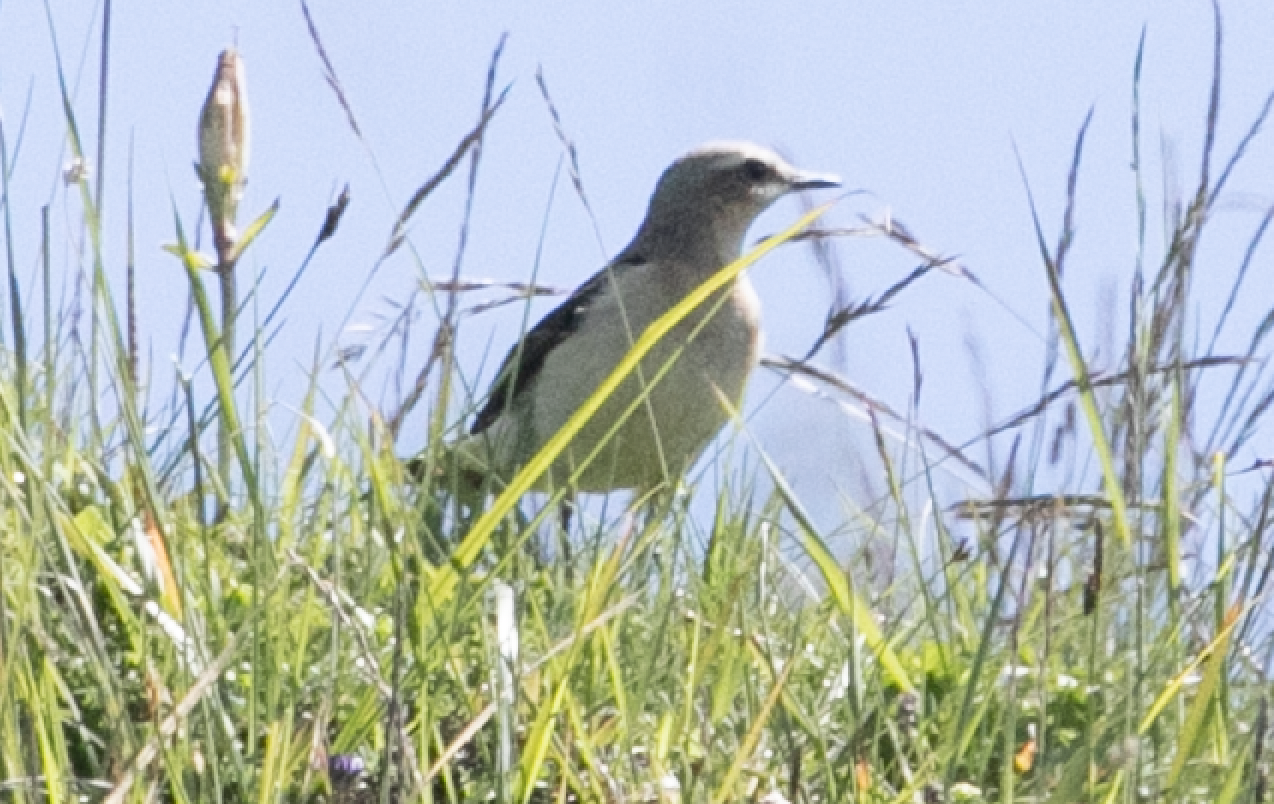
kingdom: Animalia
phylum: Chordata
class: Aves
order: Passeriformes
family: Muscicapidae
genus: Oenanthe
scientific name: Oenanthe oenanthe
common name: Northern wheatear
